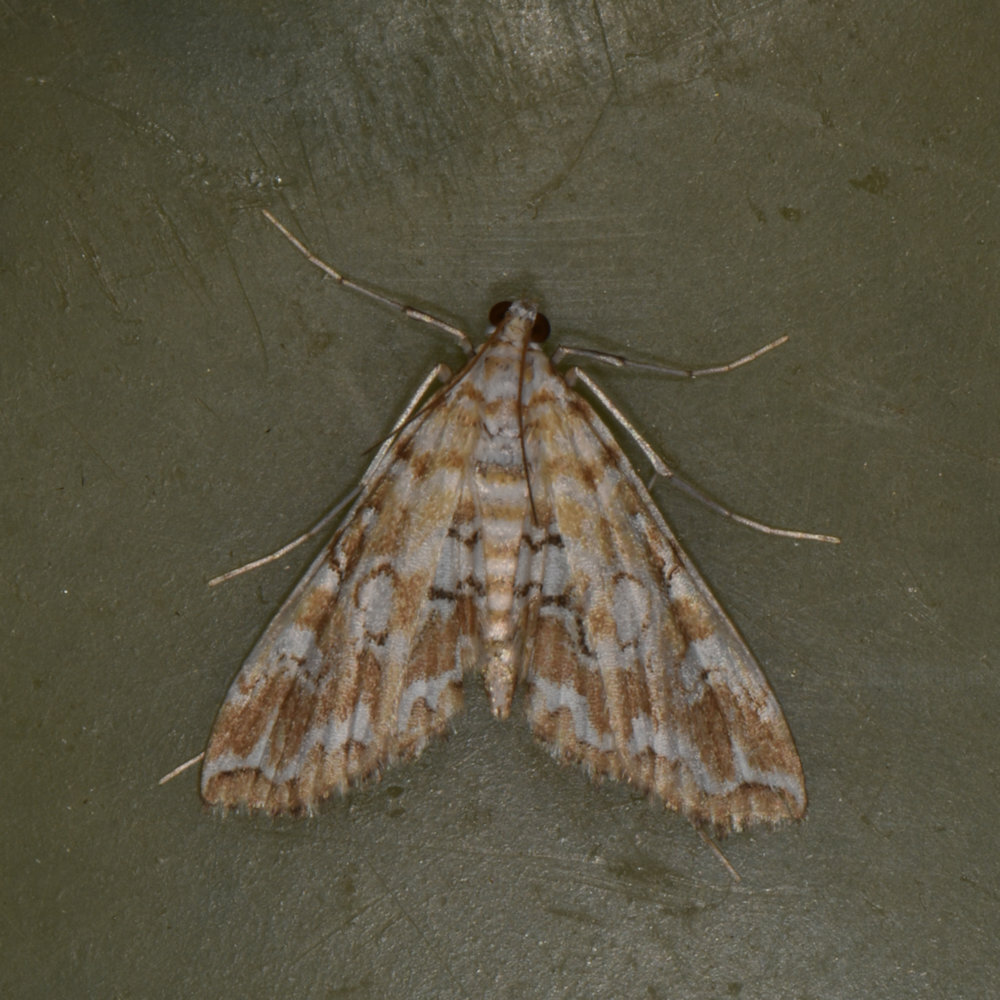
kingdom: Animalia
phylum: Arthropoda
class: Insecta
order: Lepidoptera
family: Crambidae
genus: Elophila
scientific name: Elophila icciusalis
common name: Pondside pyralid moth
